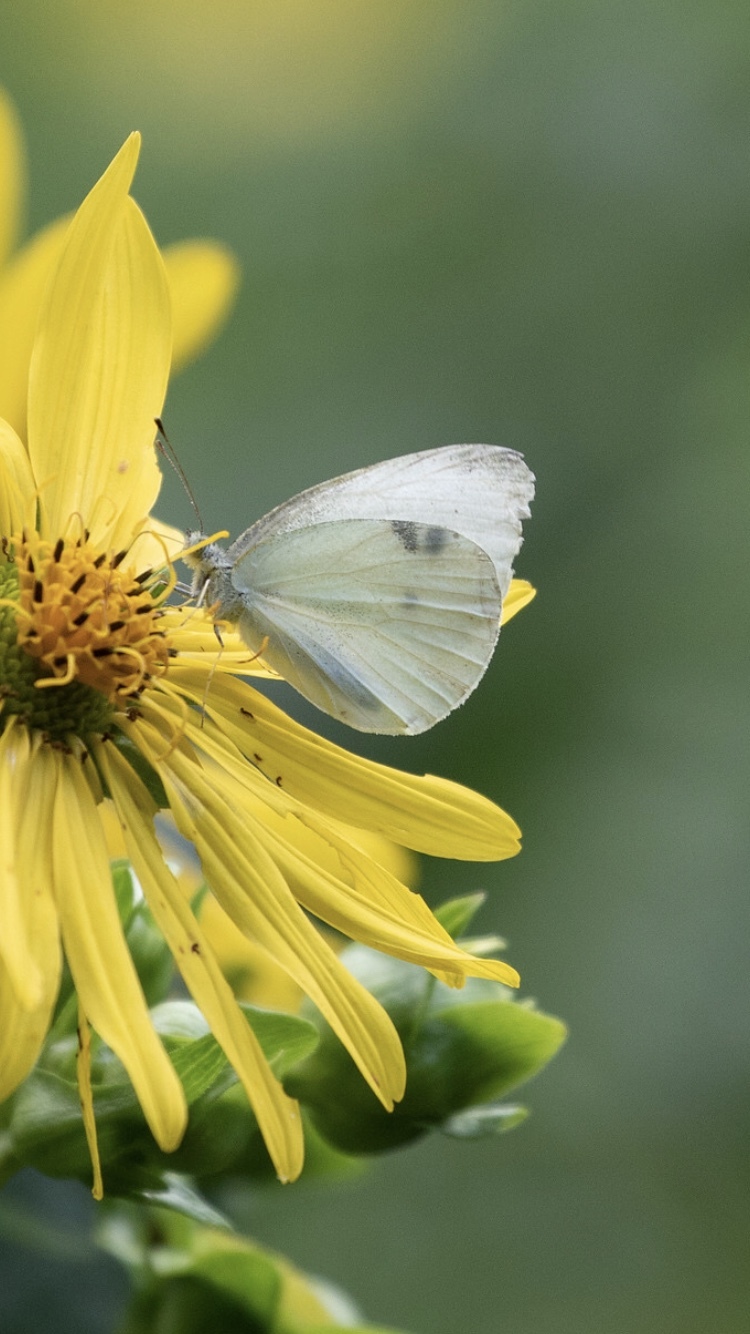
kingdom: Animalia
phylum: Arthropoda
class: Insecta
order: Lepidoptera
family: Pieridae
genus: Pieris
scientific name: Pieris rapae
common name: Small white
